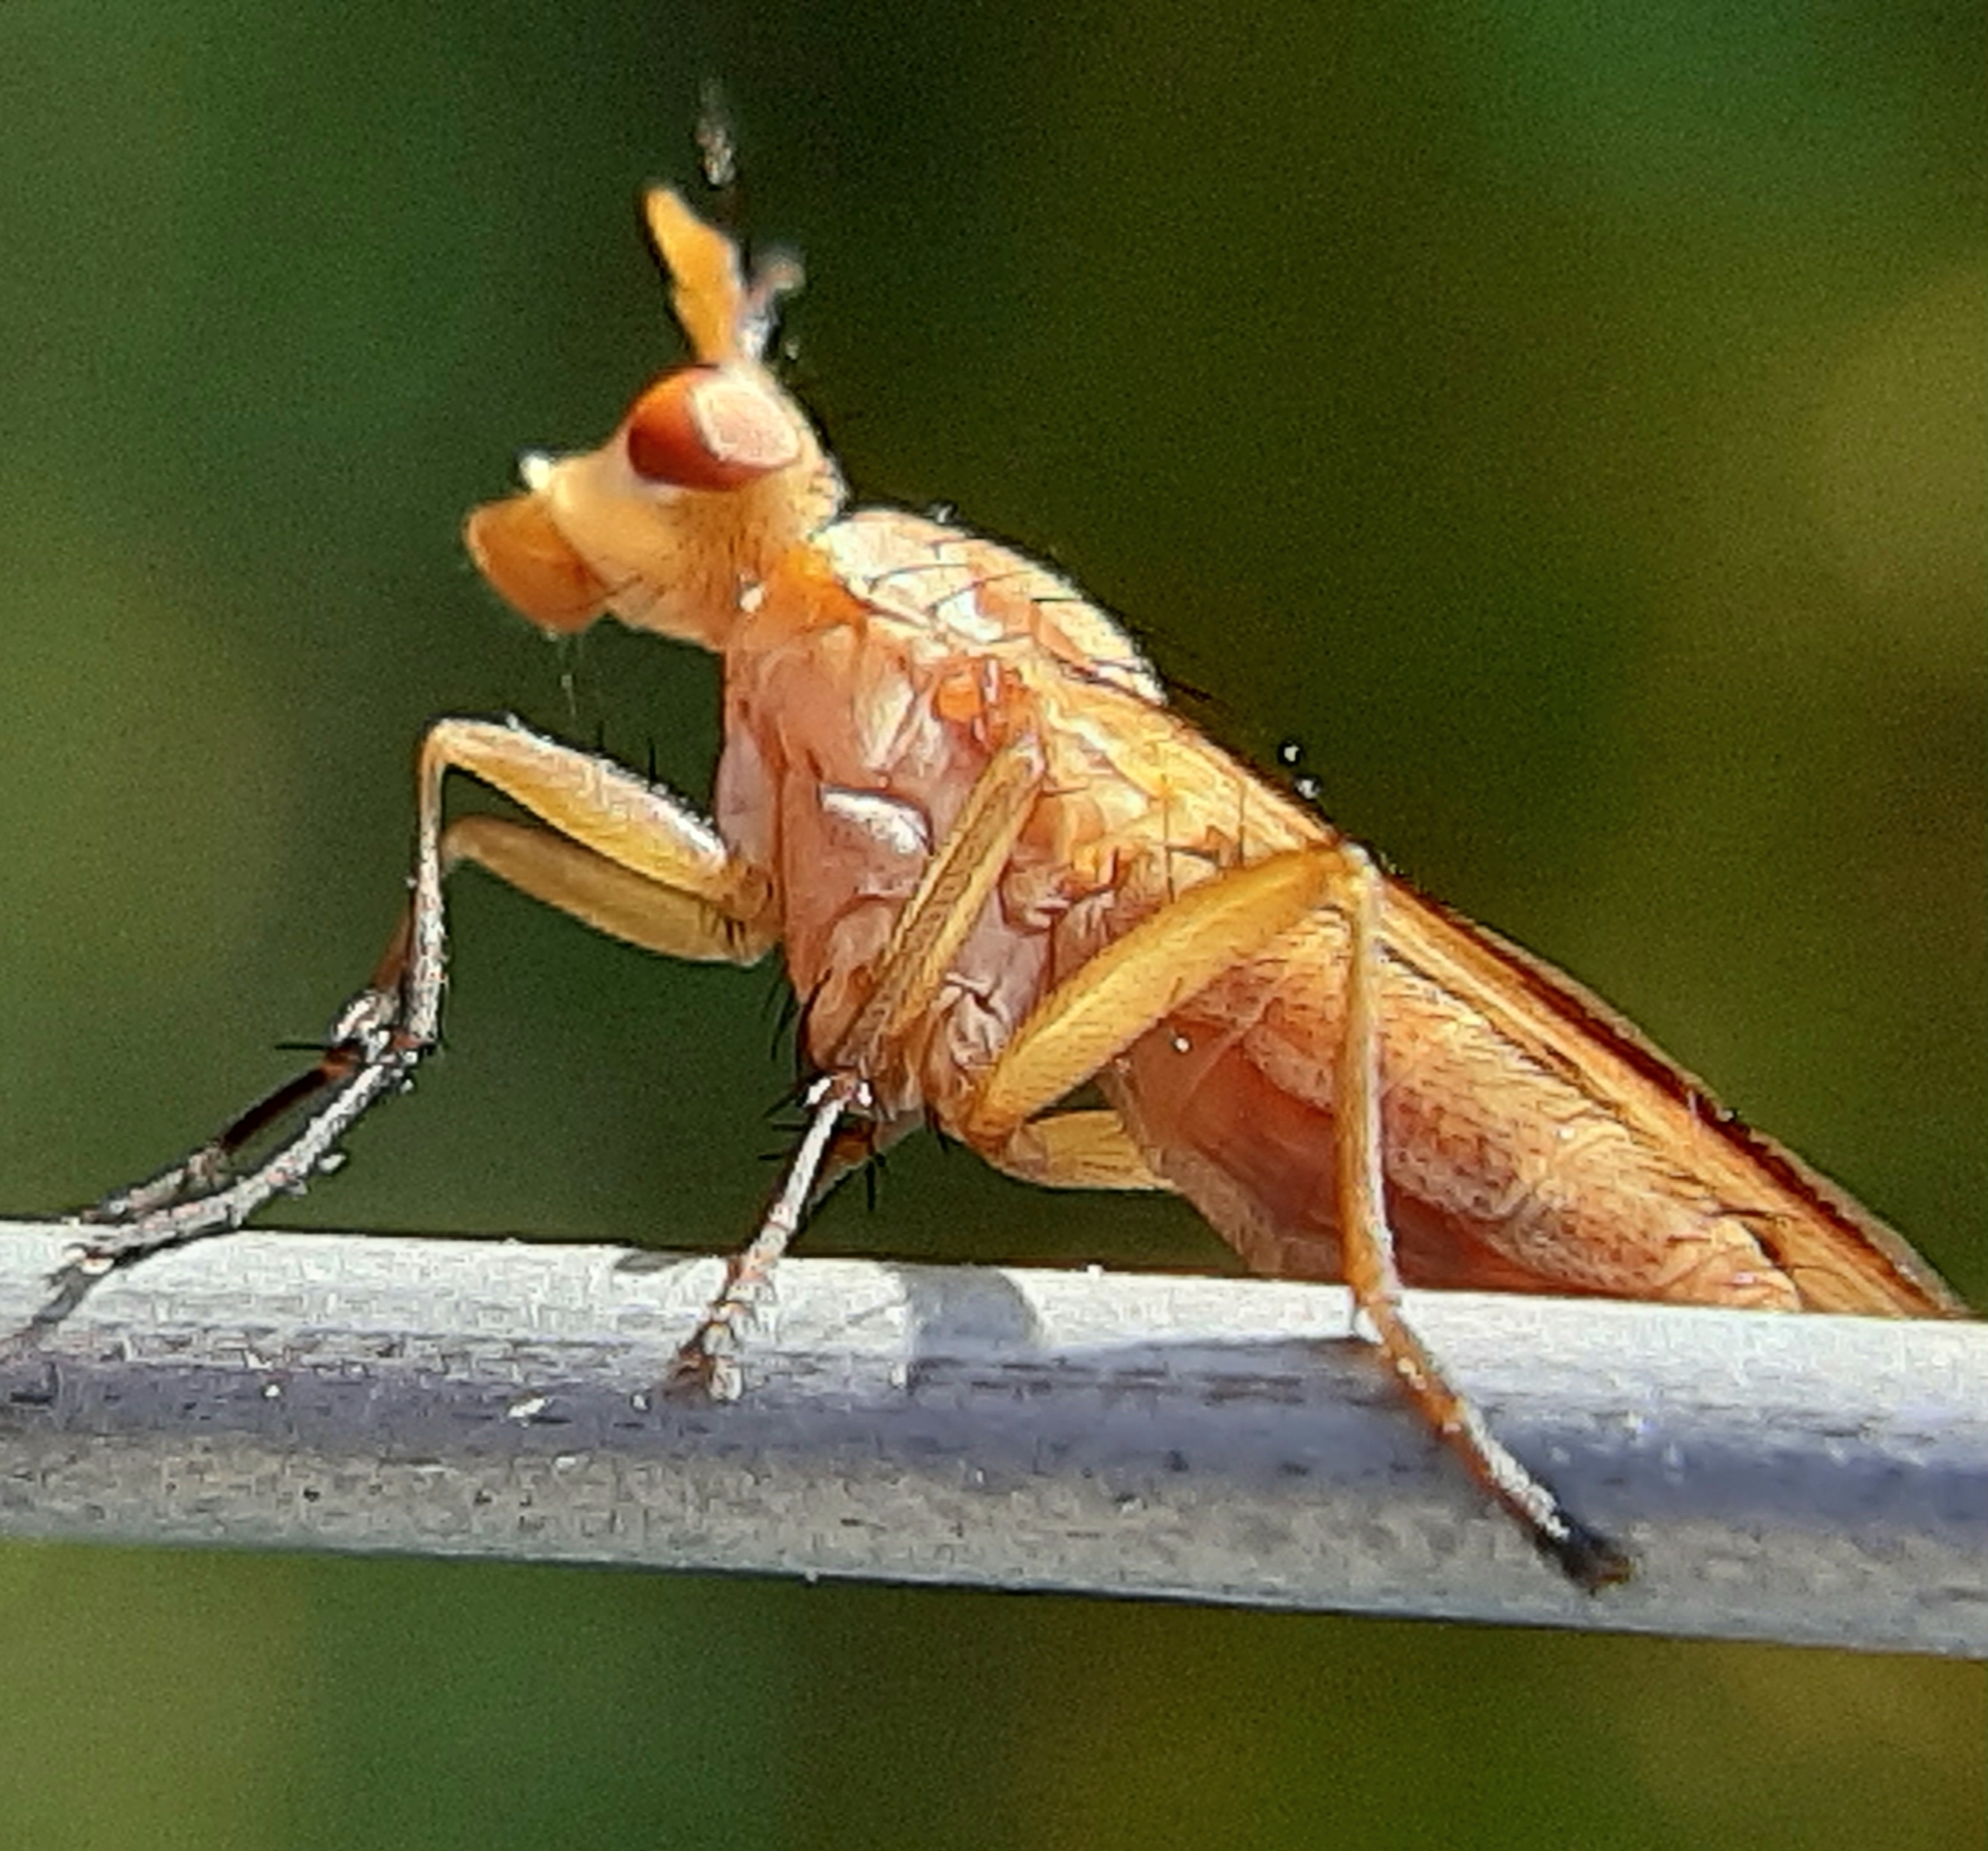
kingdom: Animalia
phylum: Arthropoda
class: Insecta
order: Diptera
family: Sciomyzidae
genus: Tetanocera
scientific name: Tetanocera plebeja
